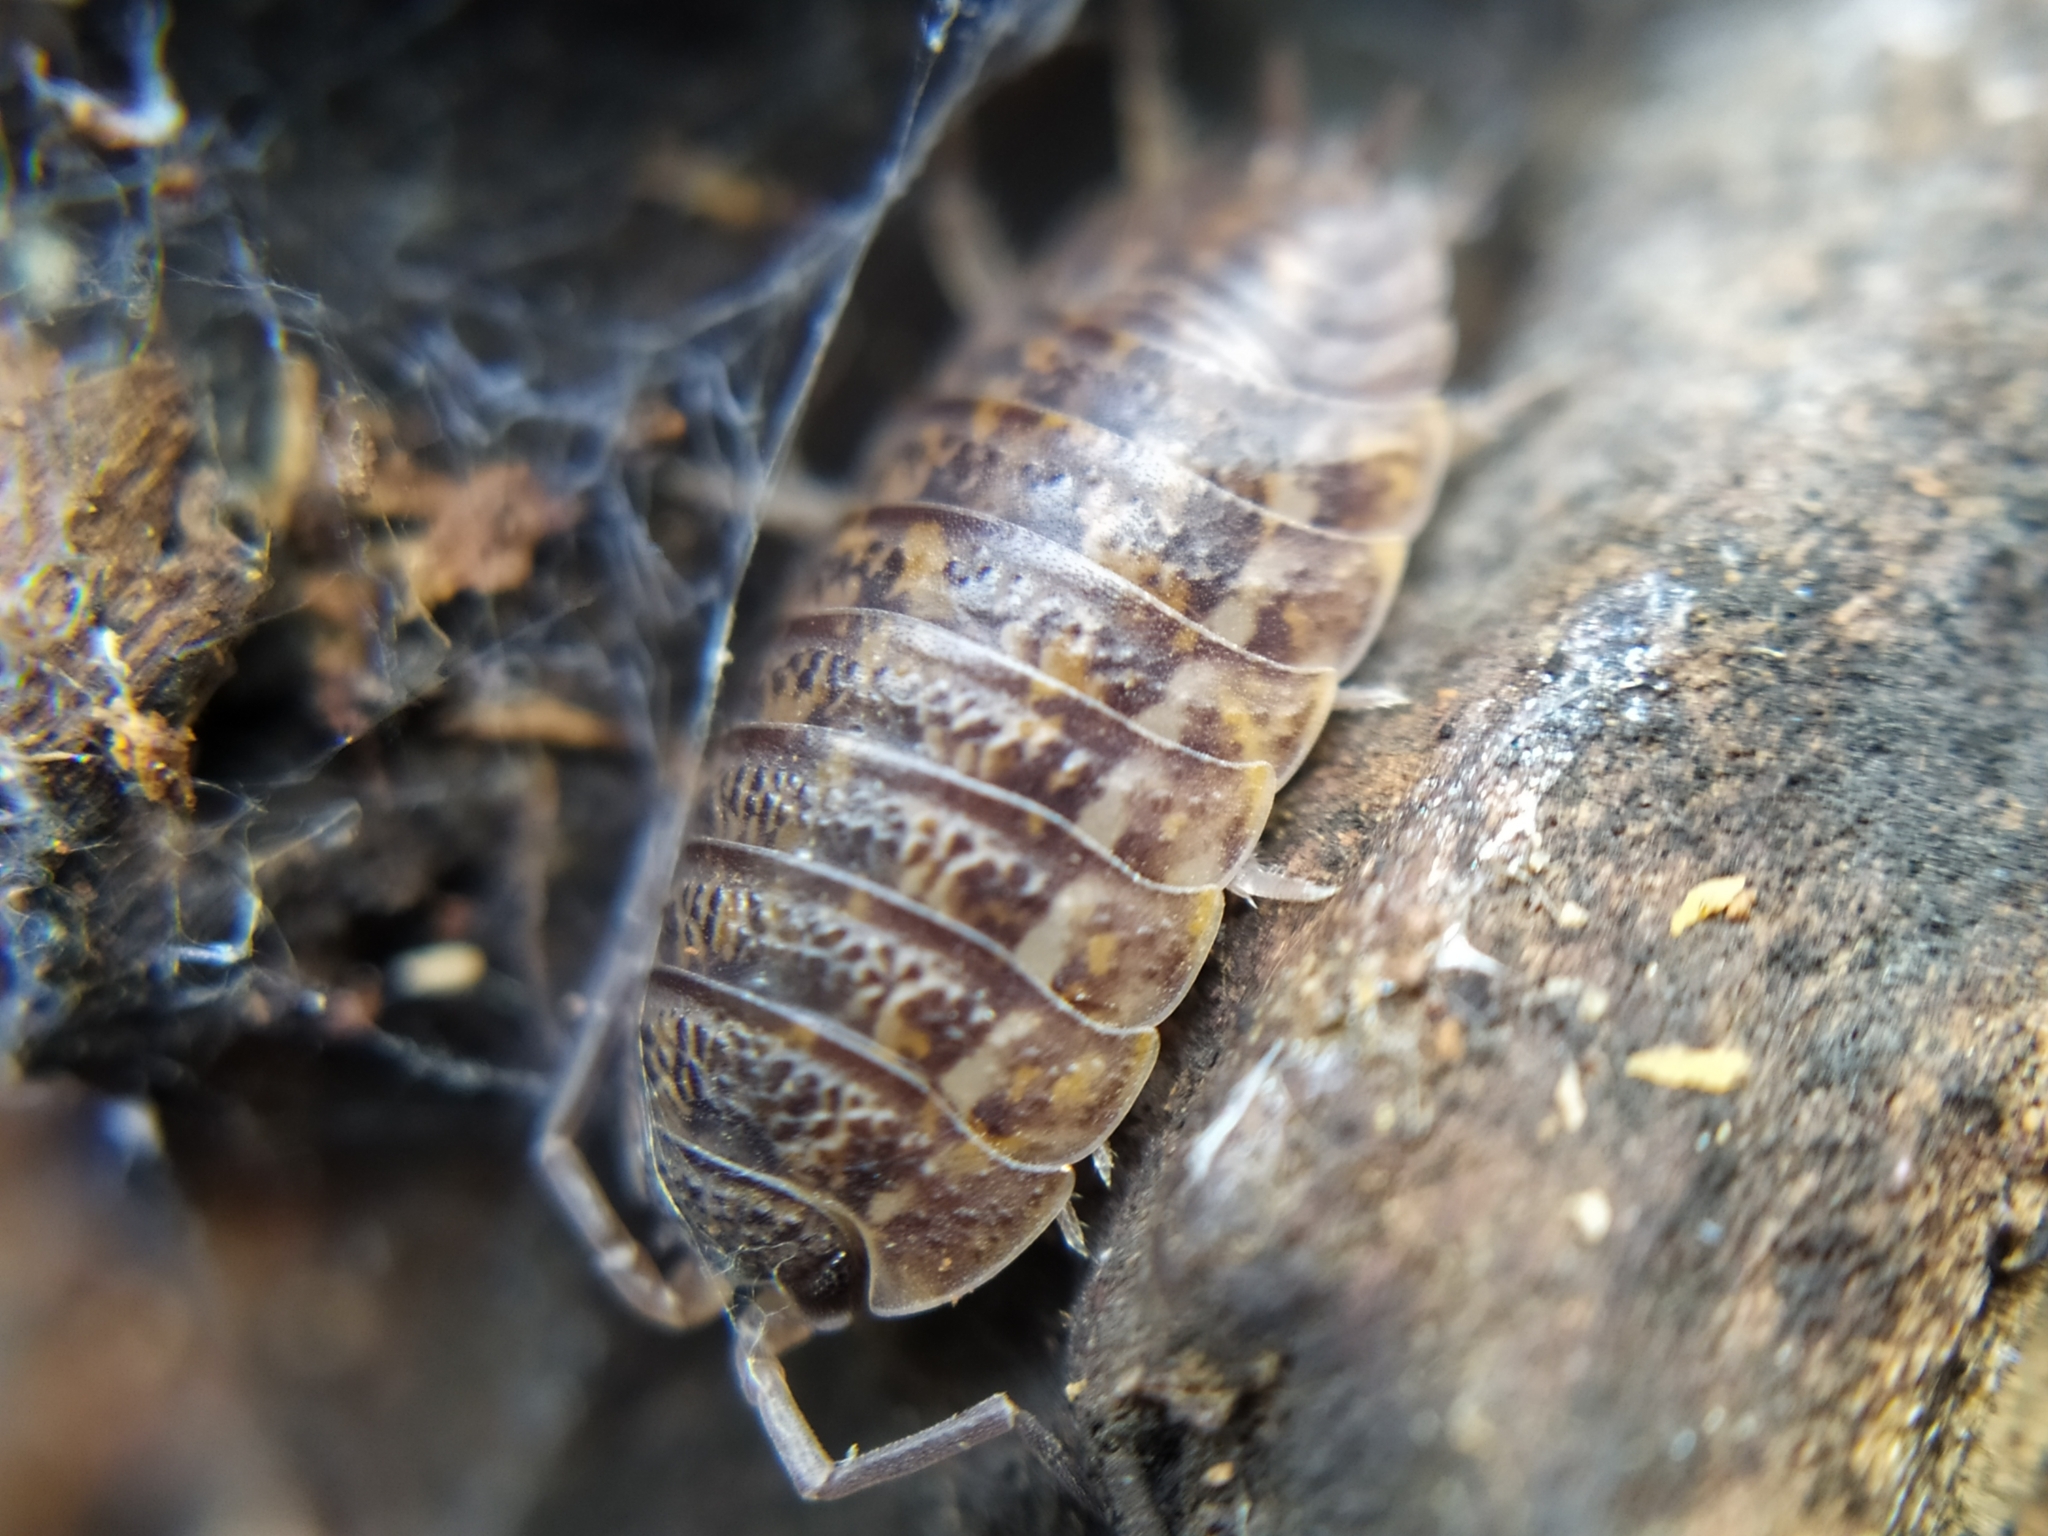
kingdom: Animalia
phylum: Arthropoda
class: Malacostraca
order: Isopoda
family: Trachelipodidae
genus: Trachelipus
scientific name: Trachelipus rathkii
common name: Isopod
